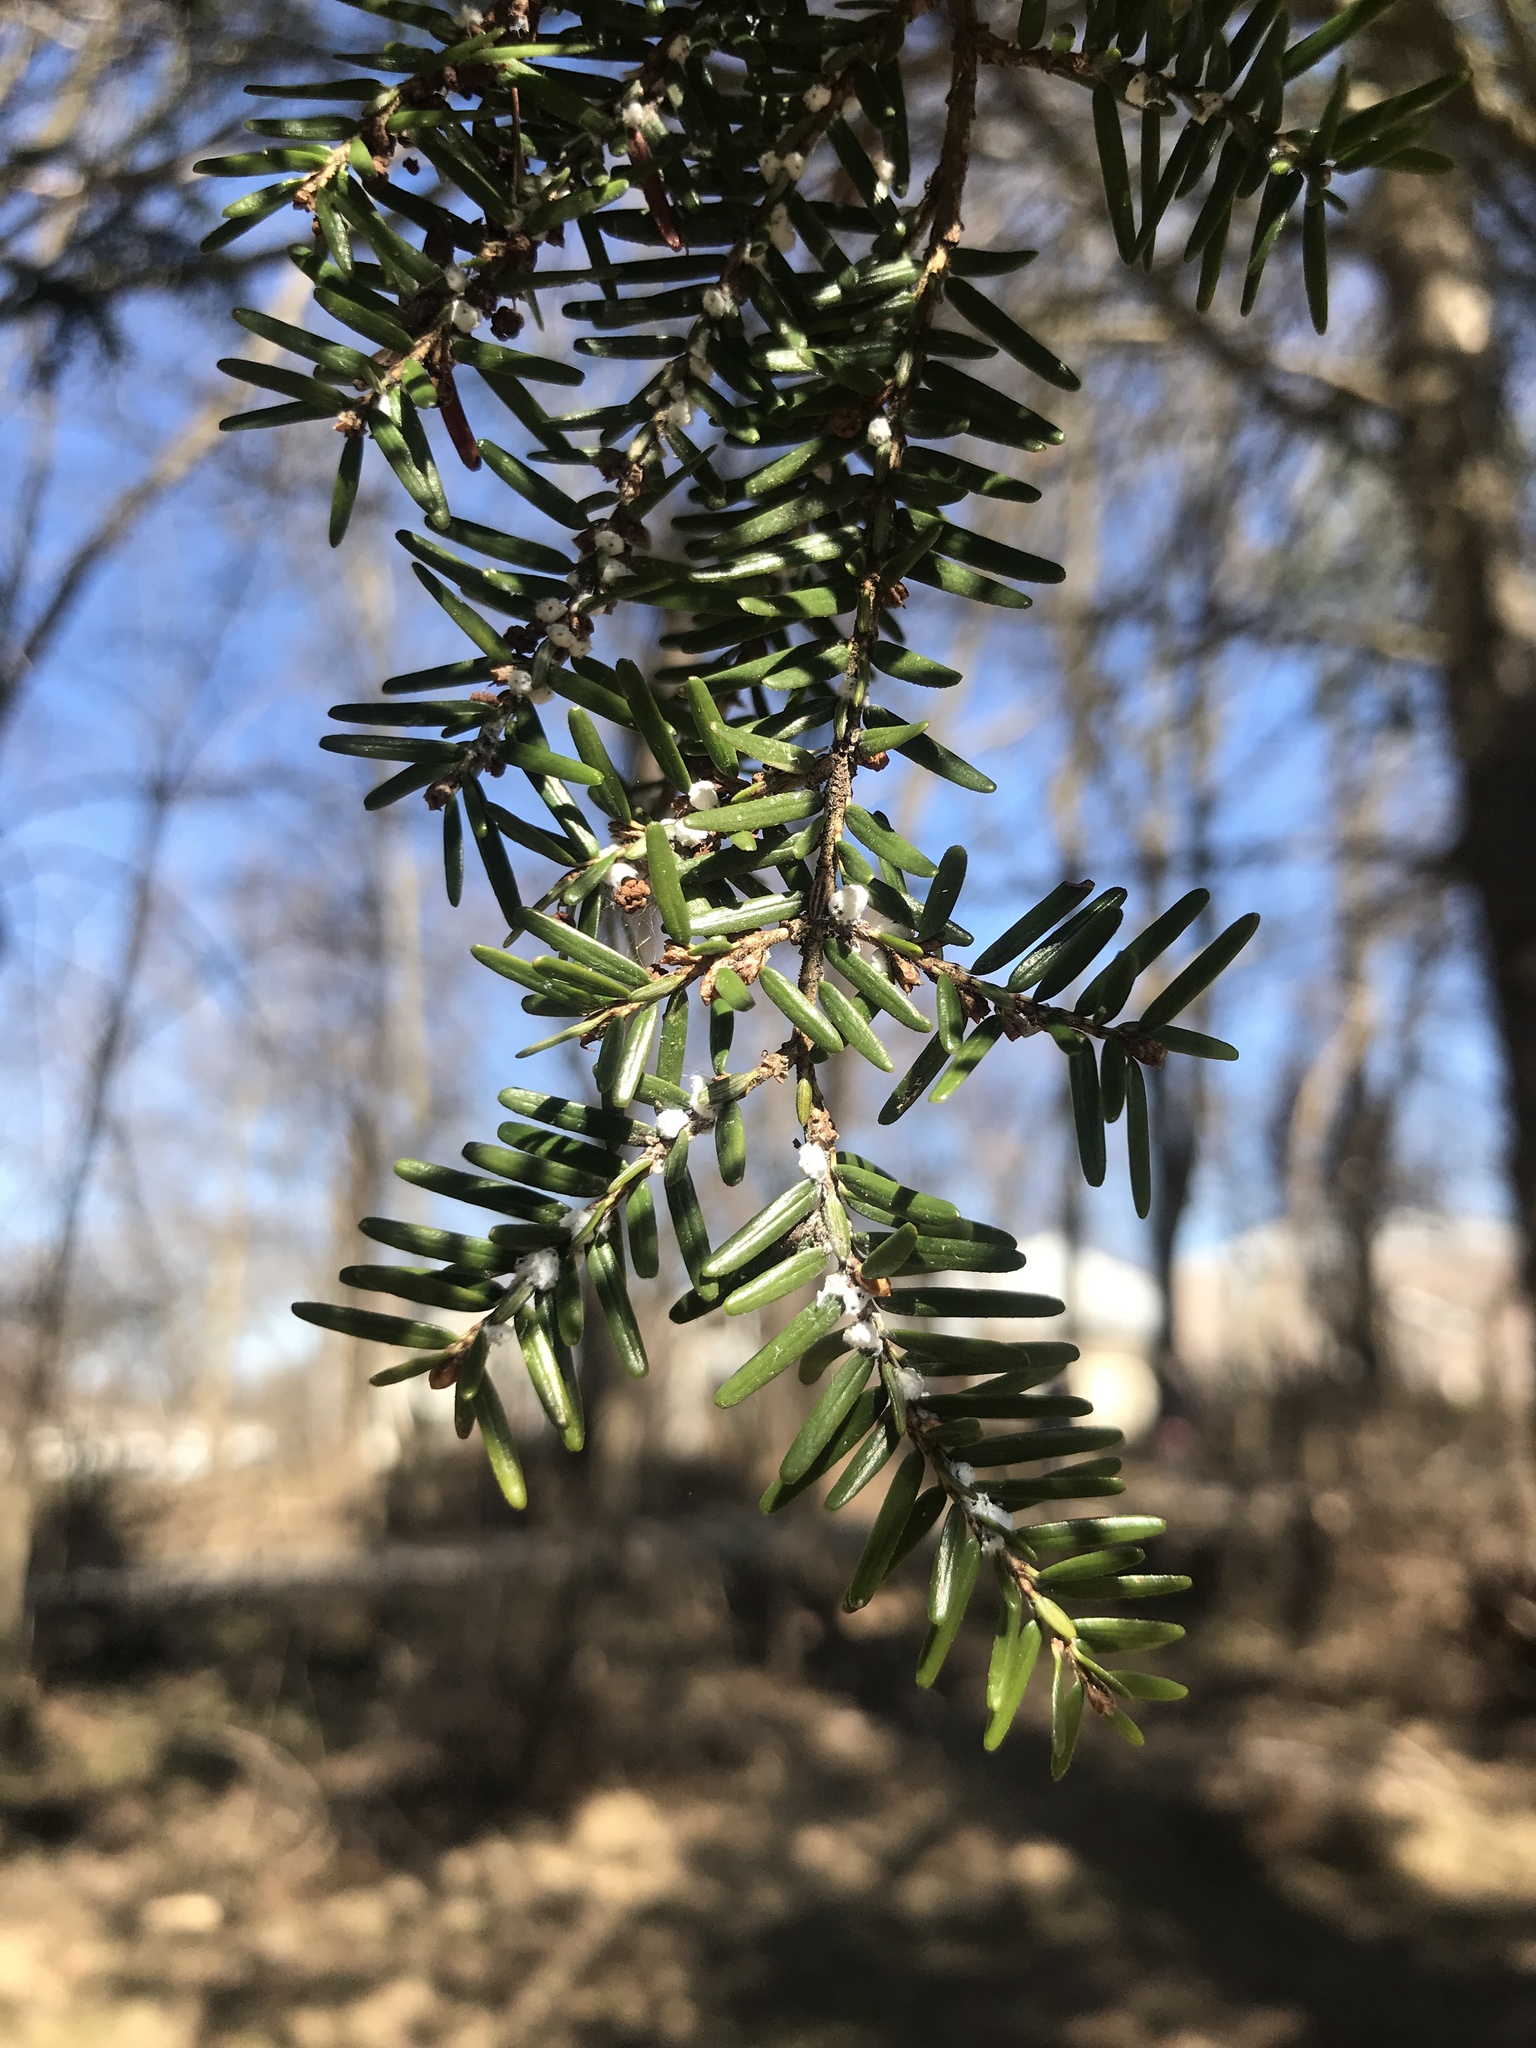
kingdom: Animalia
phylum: Arthropoda
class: Insecta
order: Hemiptera
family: Adelgidae
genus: Adelges
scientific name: Adelges tsugae
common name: Hemlock woolly adelgid
